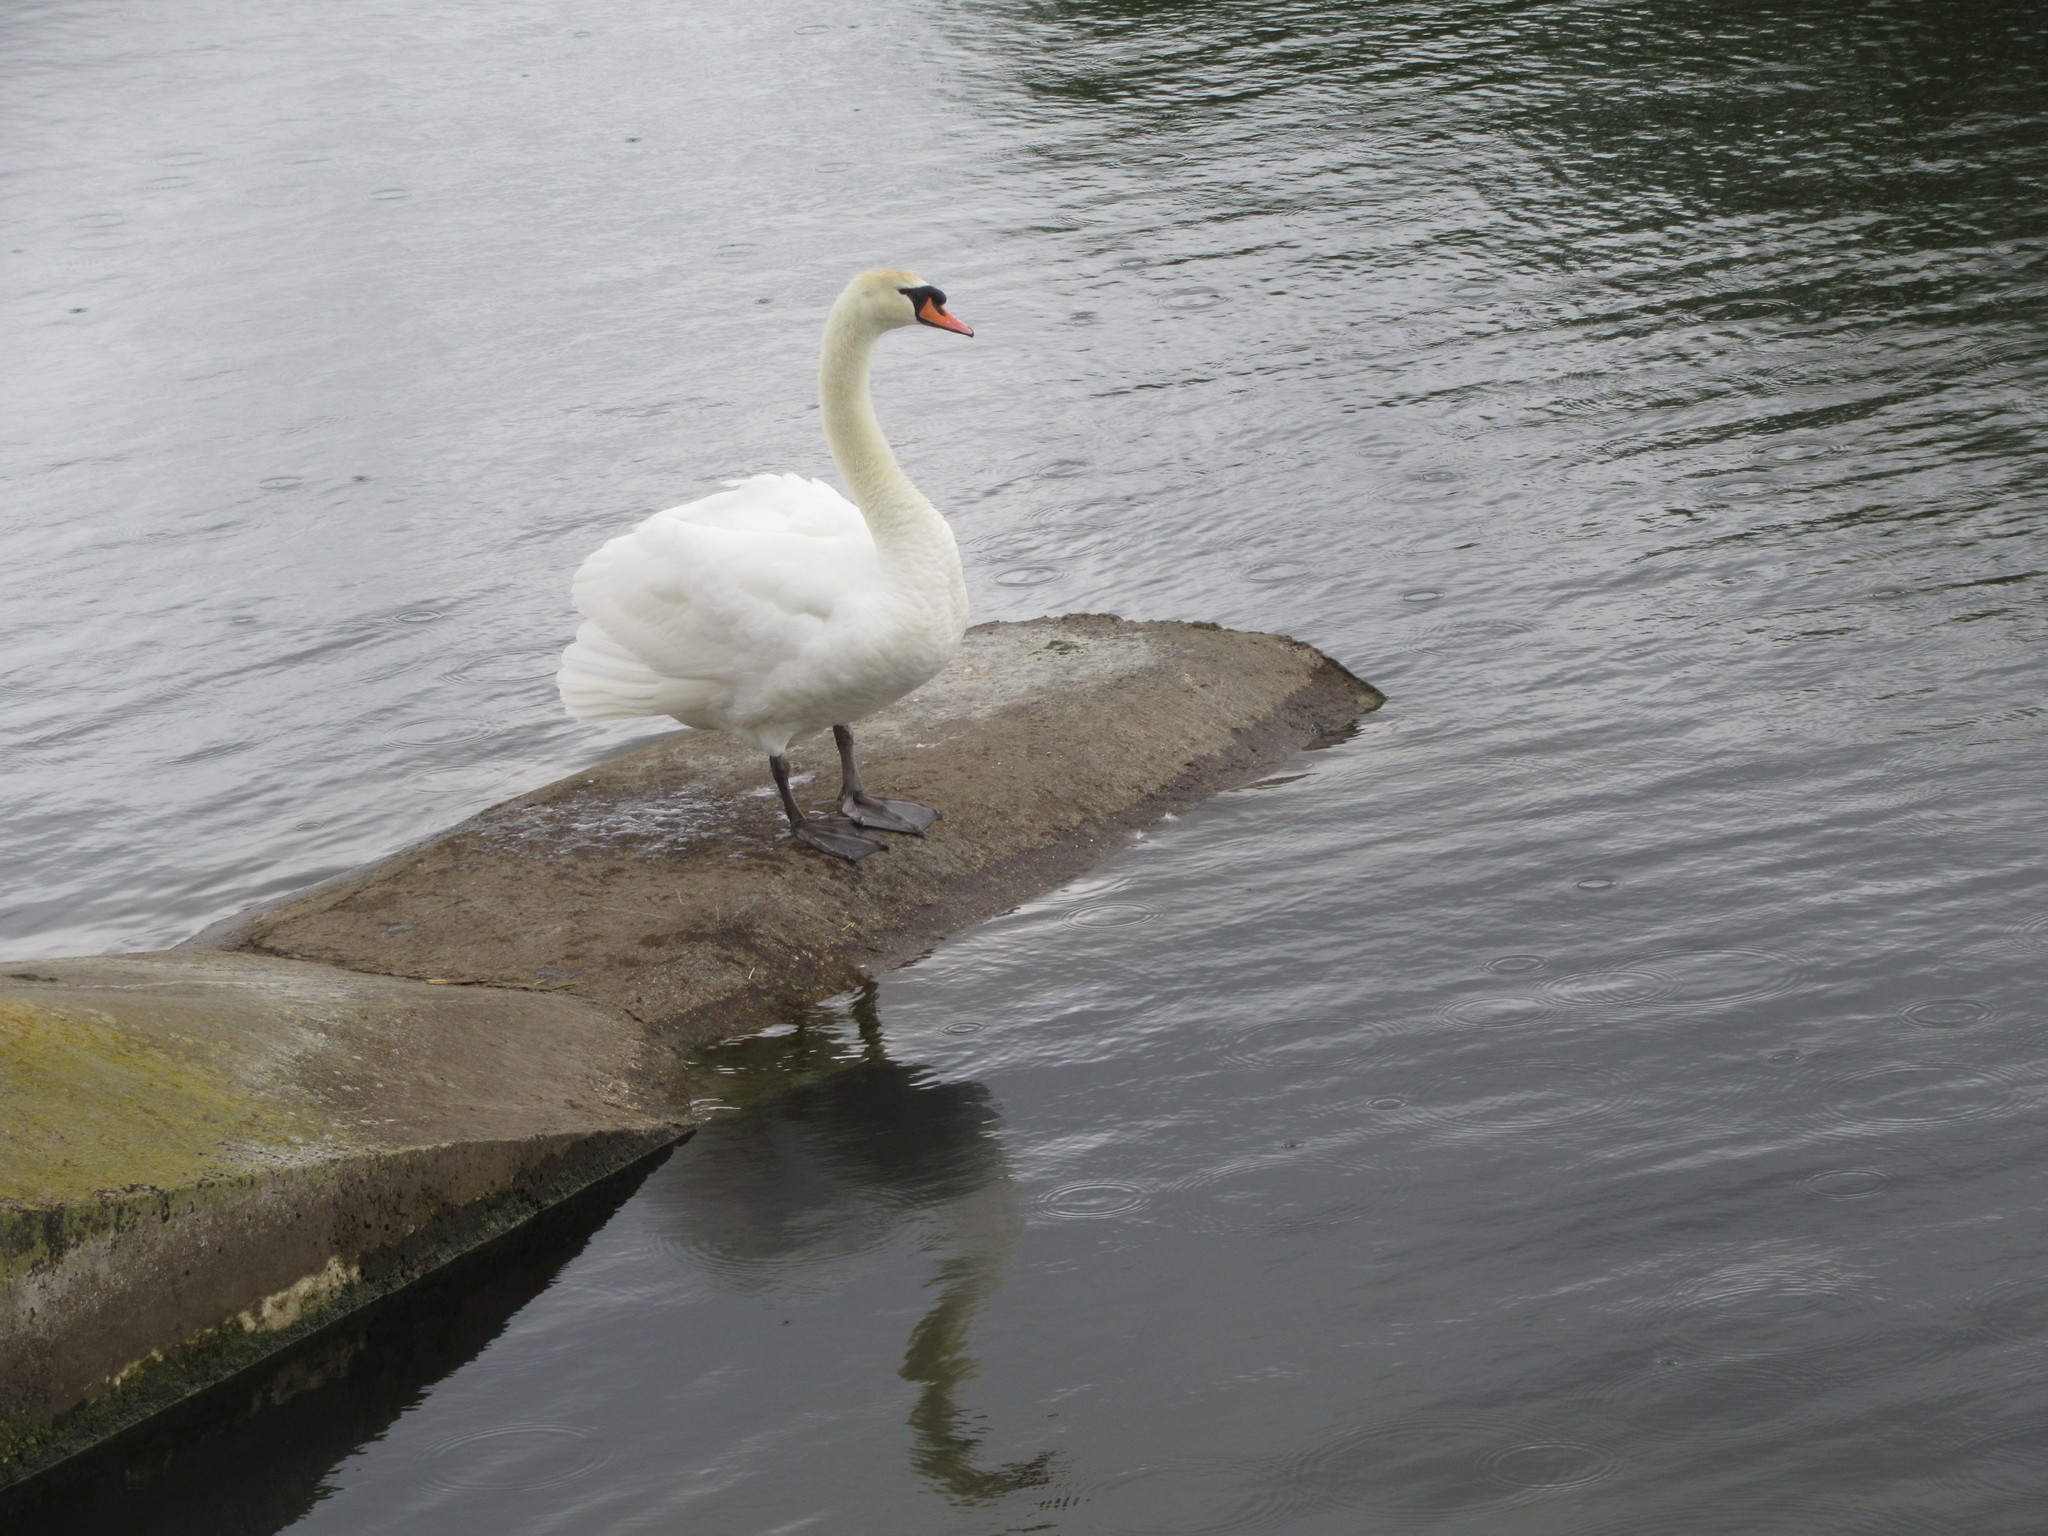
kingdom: Animalia
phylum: Chordata
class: Aves
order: Anseriformes
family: Anatidae
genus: Cygnus
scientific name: Cygnus olor
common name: Mute swan
